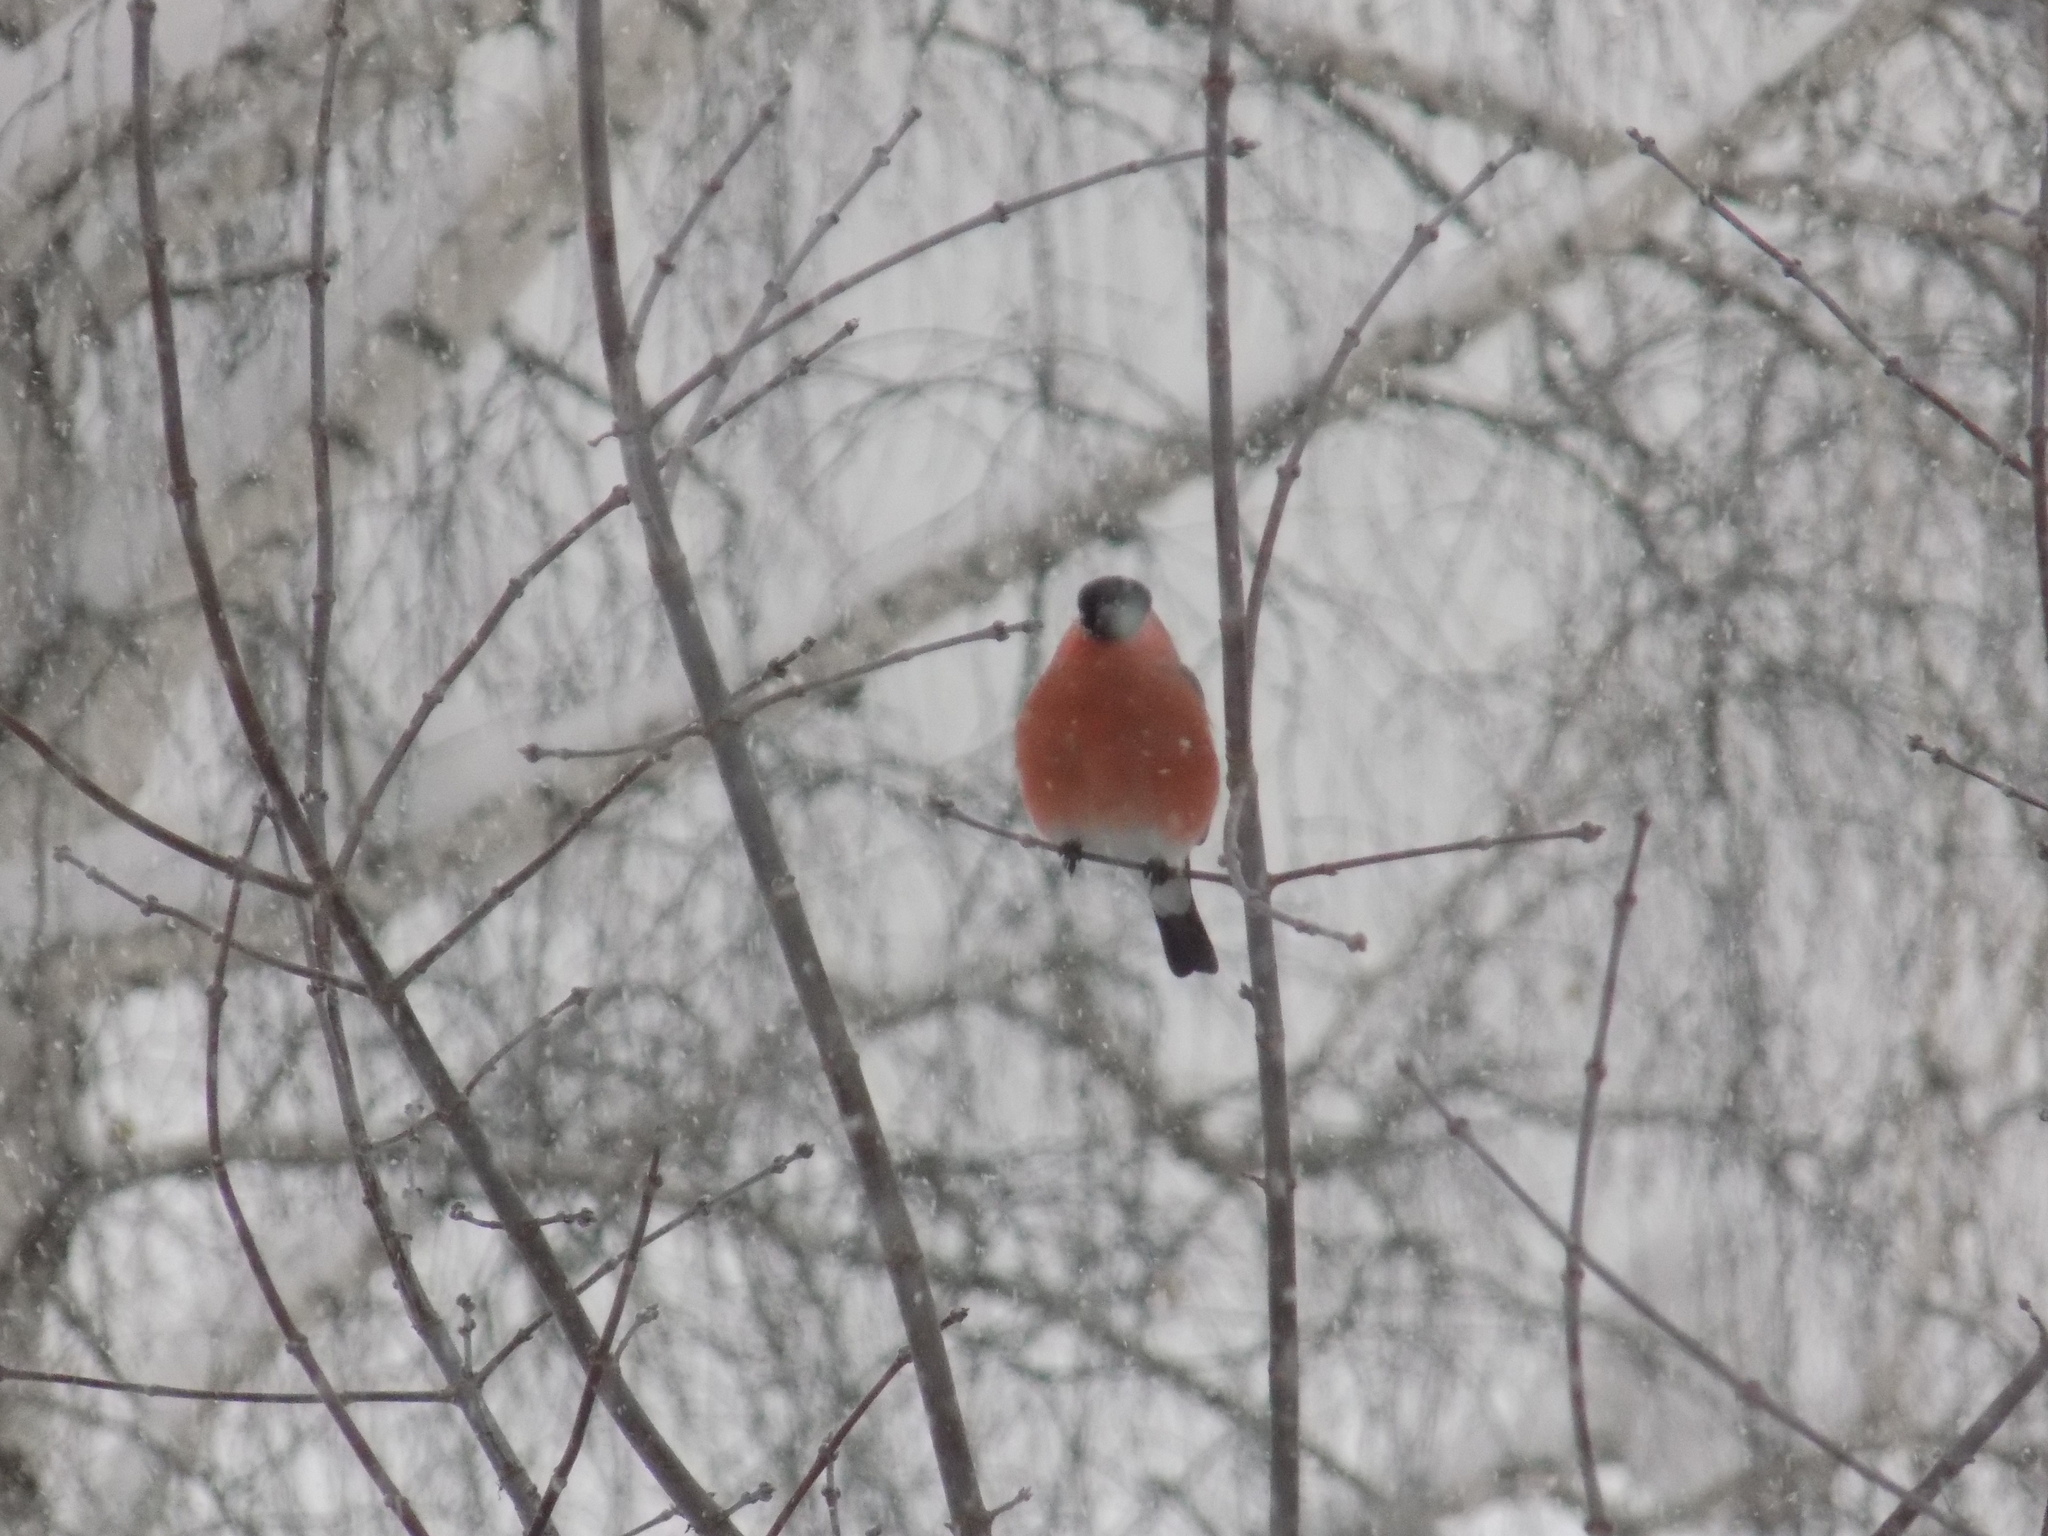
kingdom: Animalia
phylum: Chordata
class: Aves
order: Passeriformes
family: Fringillidae
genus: Pyrrhula
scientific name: Pyrrhula pyrrhula
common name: Eurasian bullfinch
